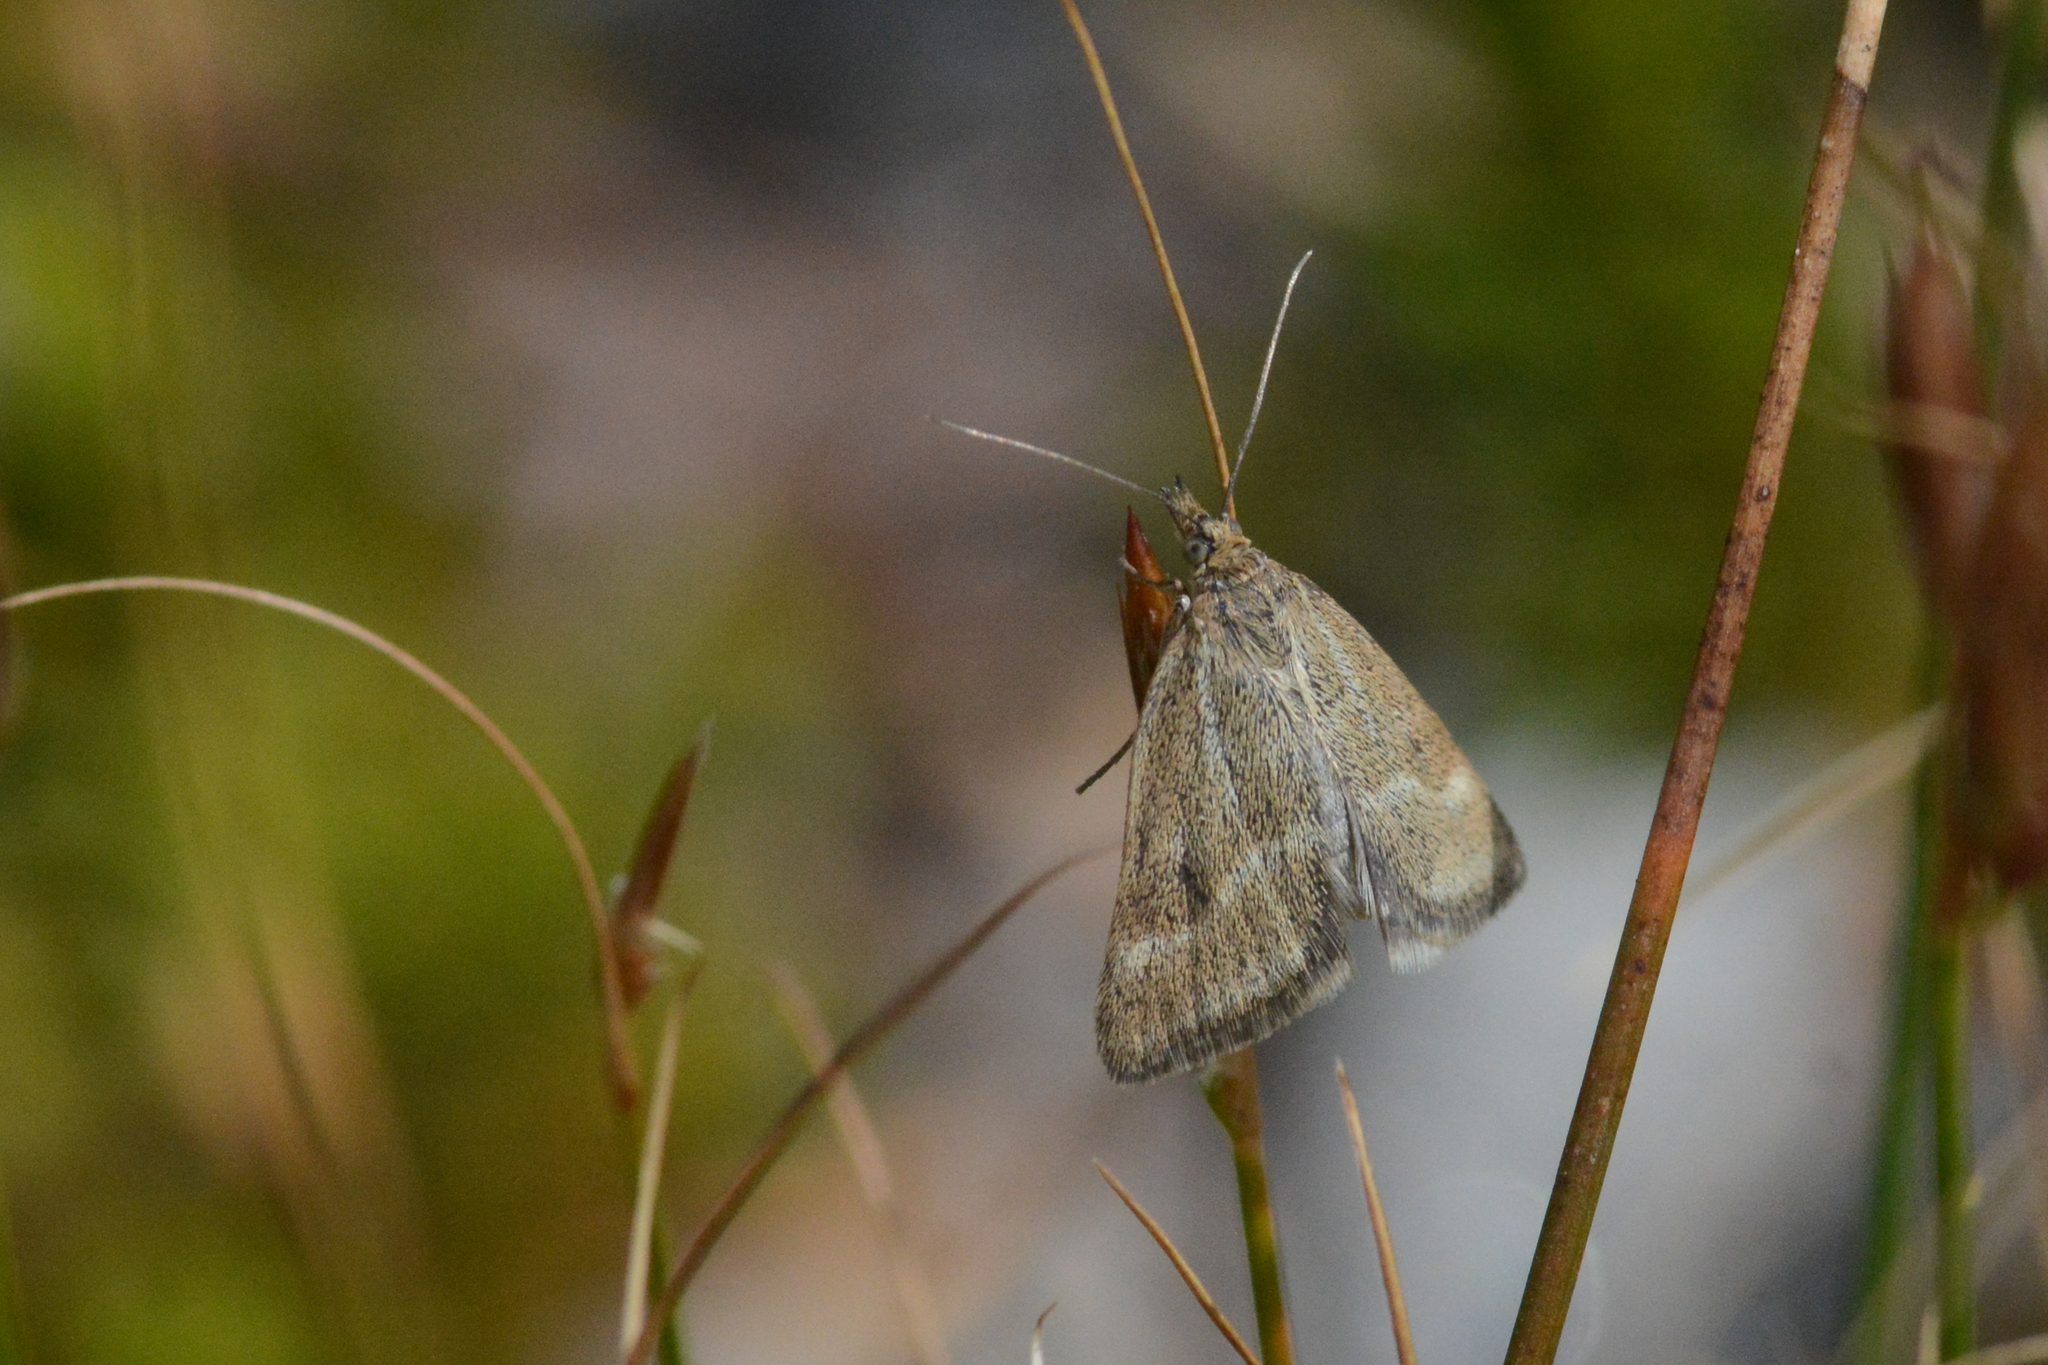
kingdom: Animalia
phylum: Arthropoda
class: Insecta
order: Lepidoptera
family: Crambidae
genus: Pyrausta
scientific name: Pyrausta unifascialis
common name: One-banded pyrausta
